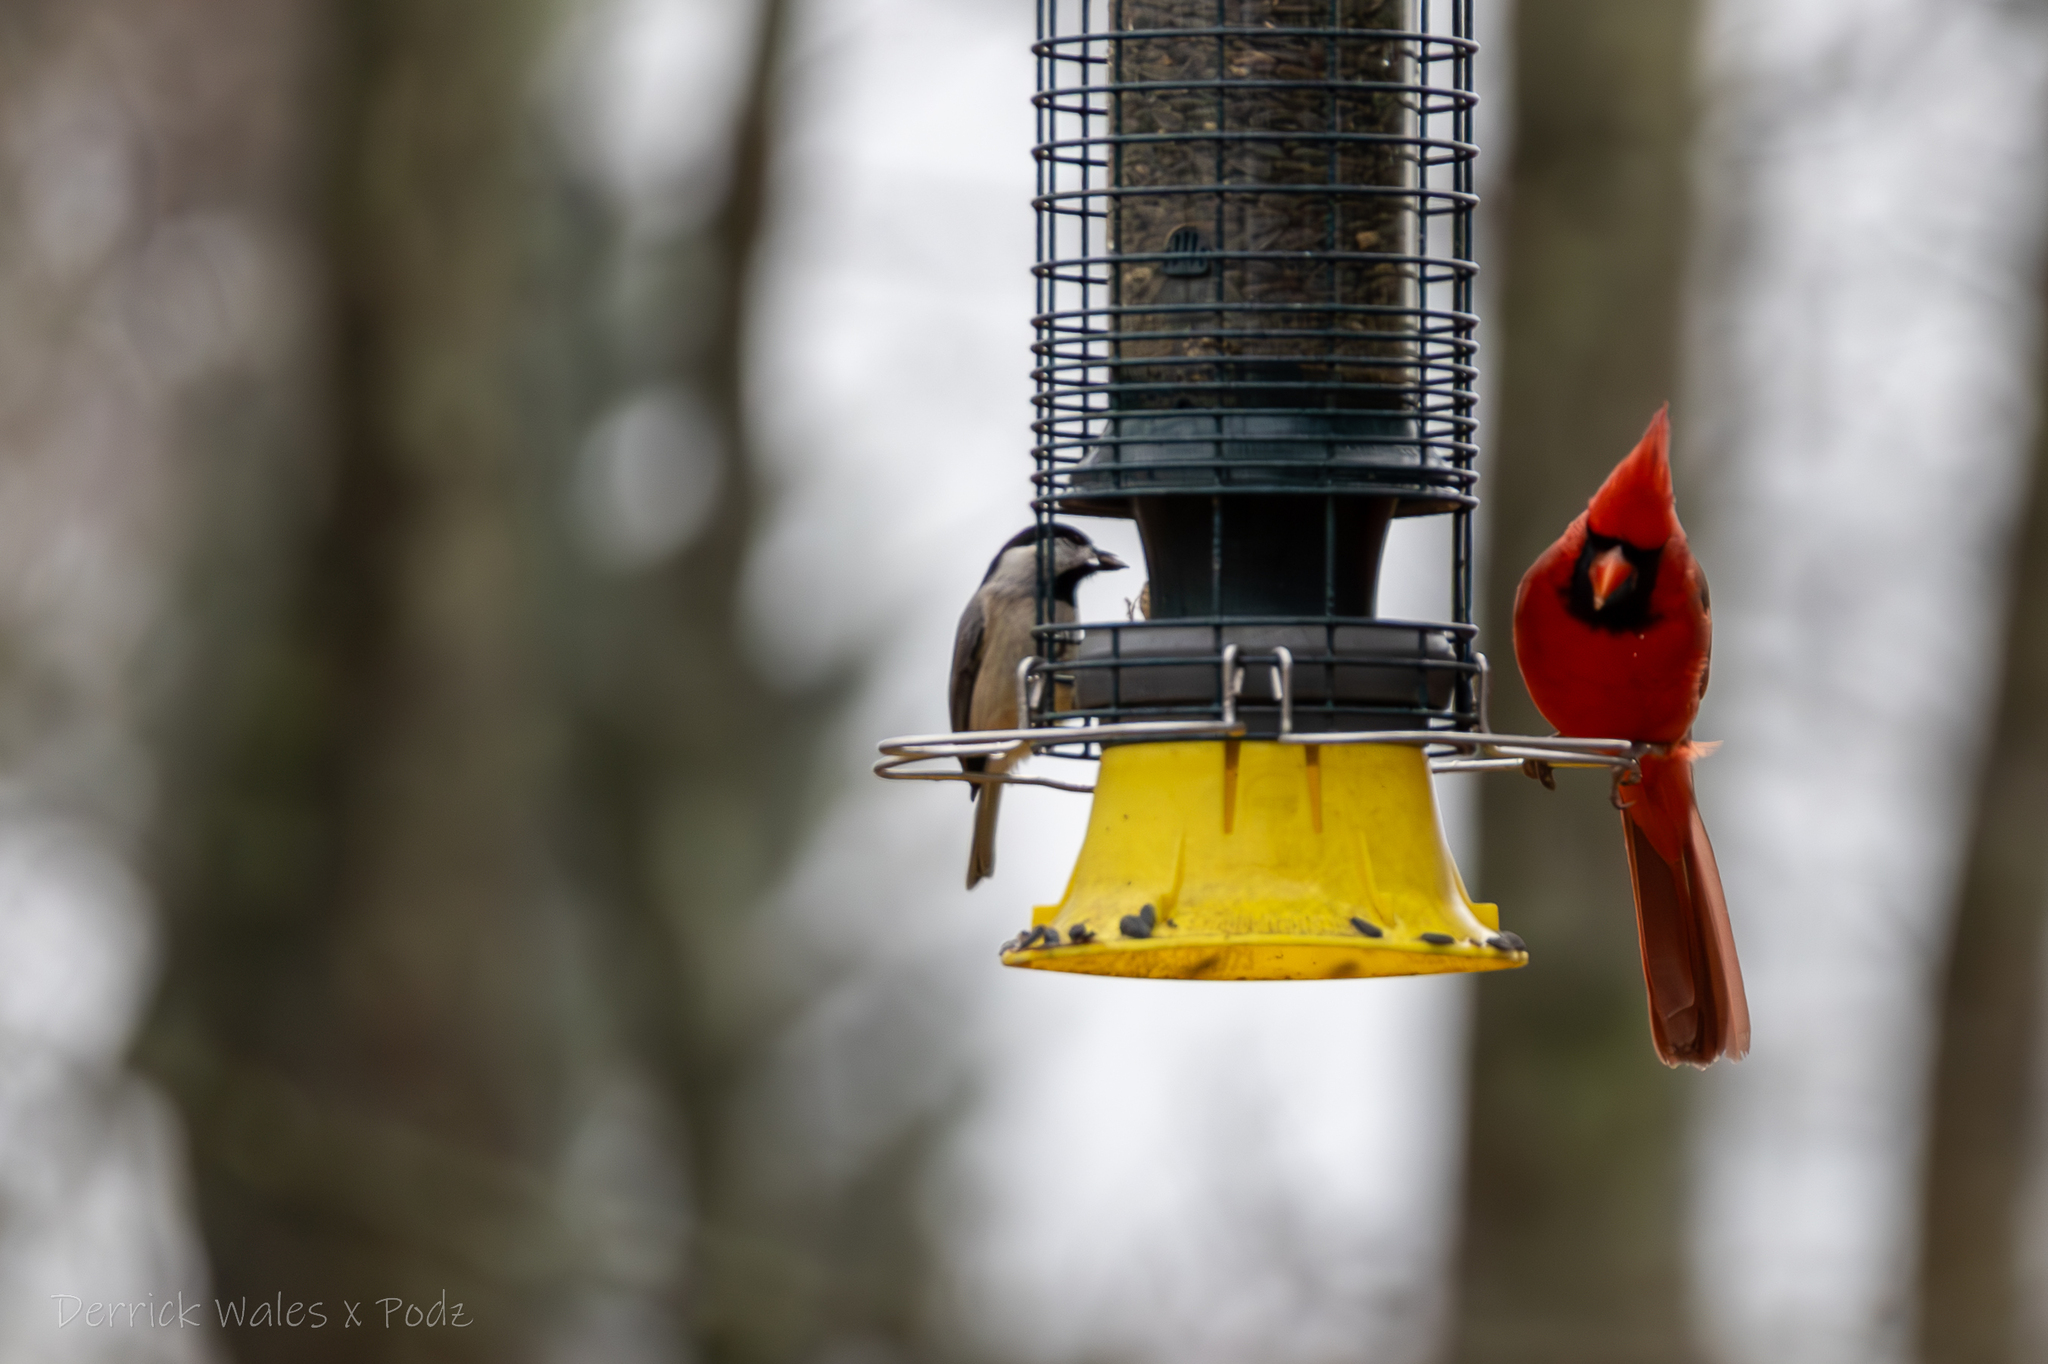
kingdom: Animalia
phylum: Chordata
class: Aves
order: Passeriformes
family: Paridae
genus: Poecile
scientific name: Poecile carolinensis
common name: Carolina chickadee
